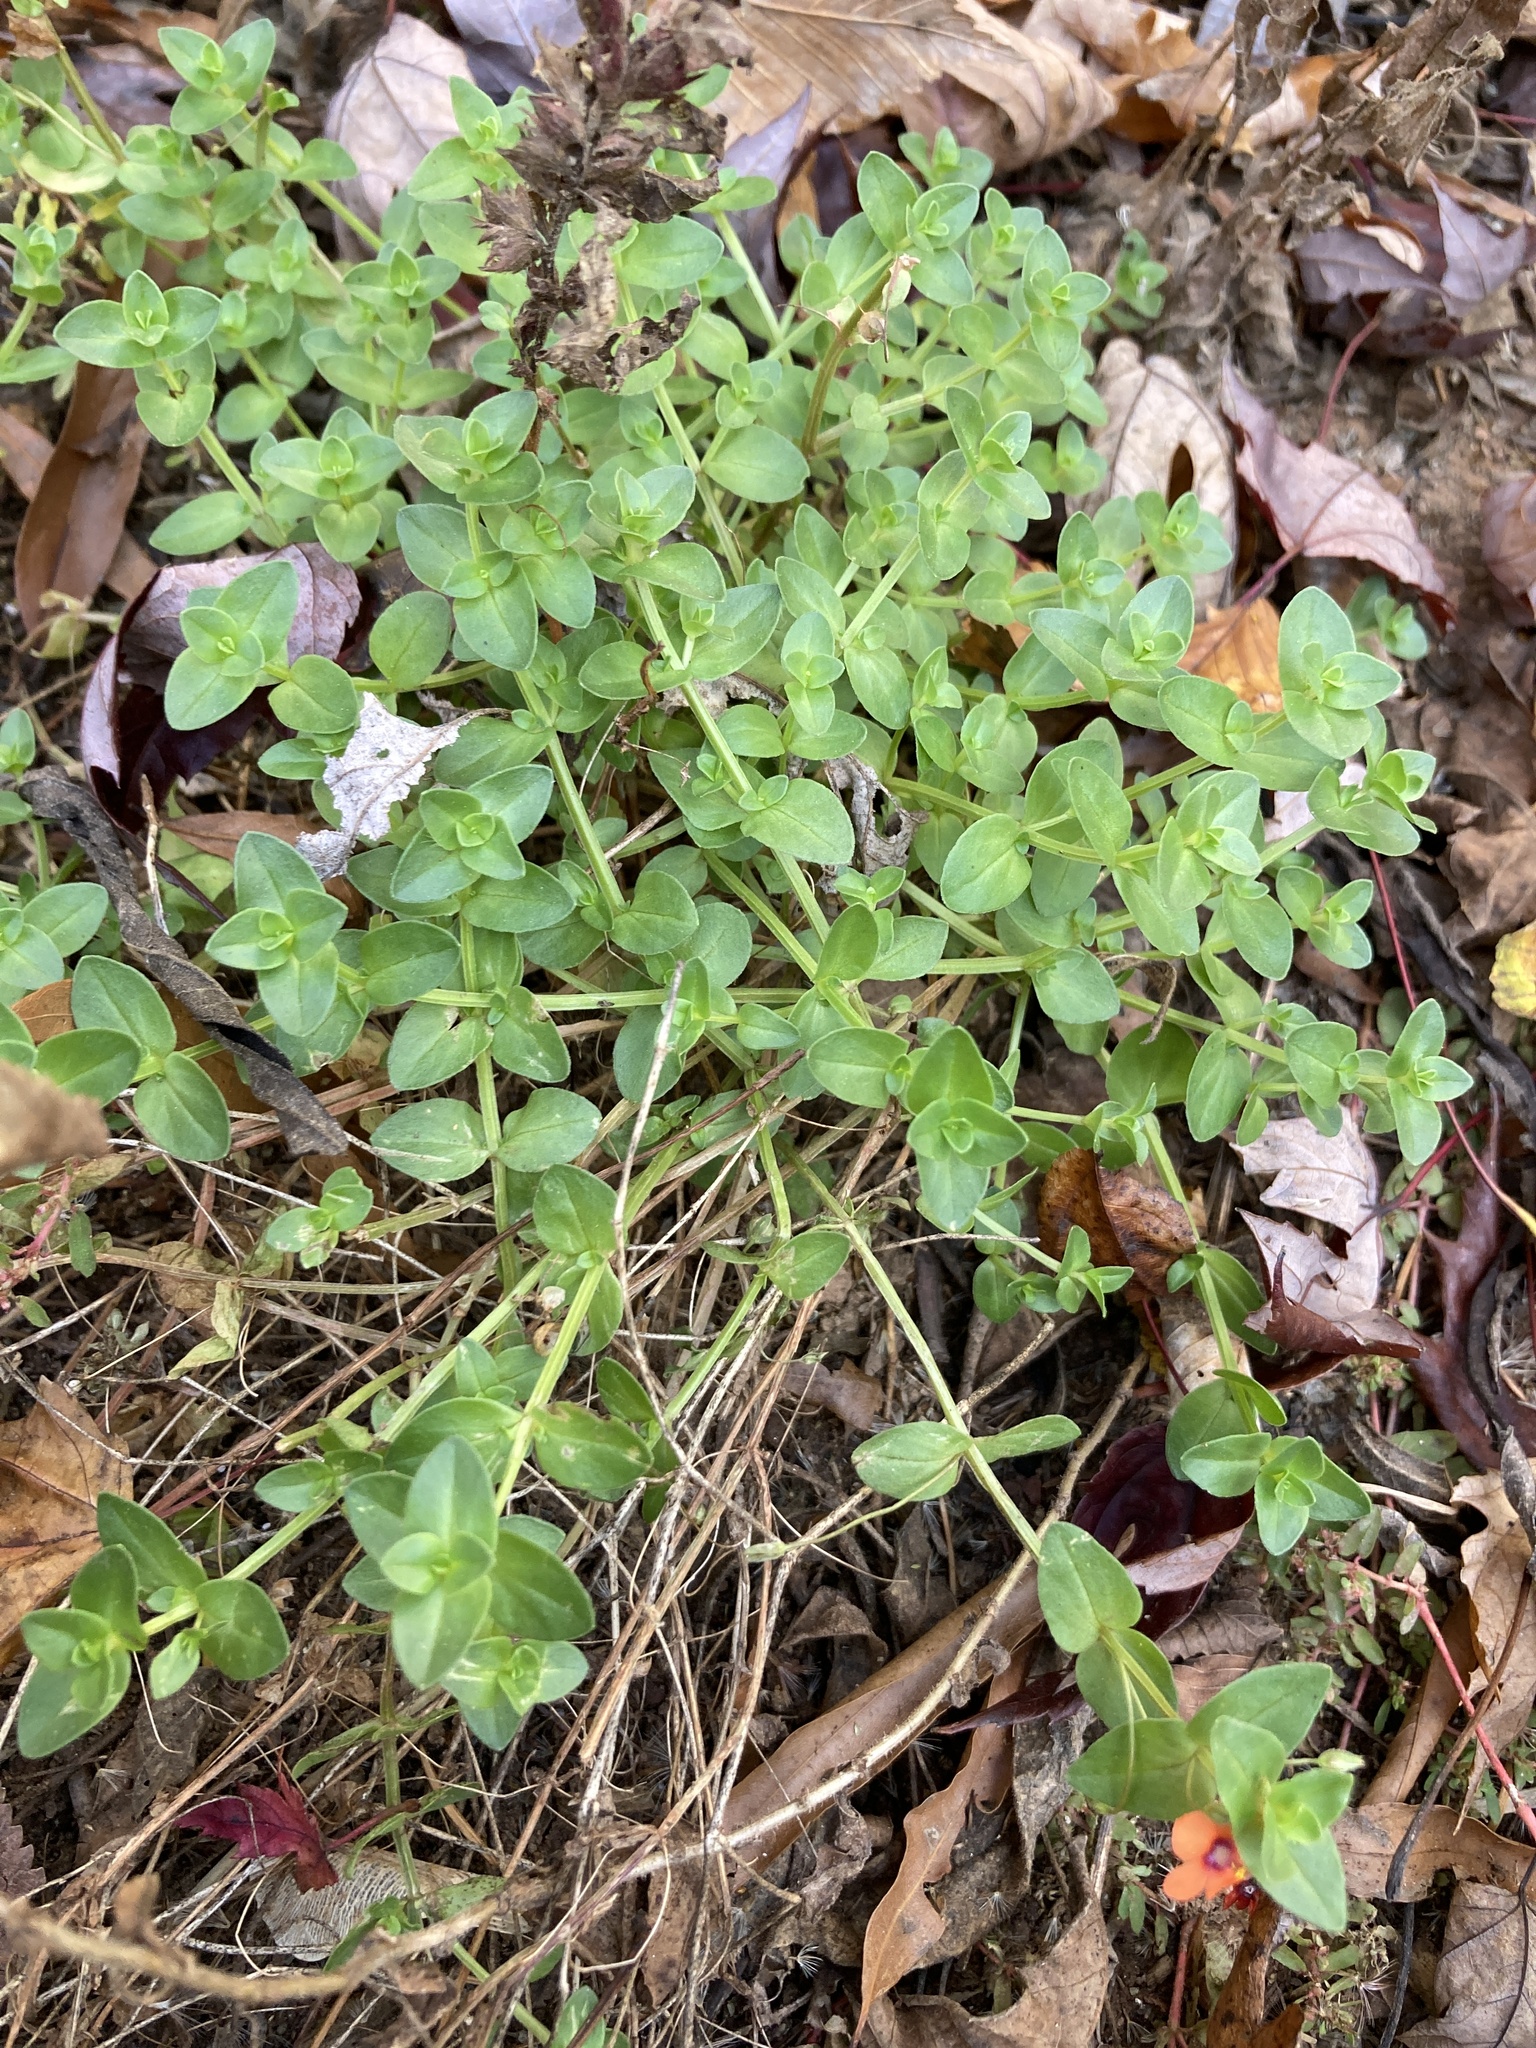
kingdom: Plantae
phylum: Tracheophyta
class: Magnoliopsida
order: Ericales
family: Primulaceae
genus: Lysimachia
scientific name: Lysimachia arvensis
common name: Scarlet pimpernel
